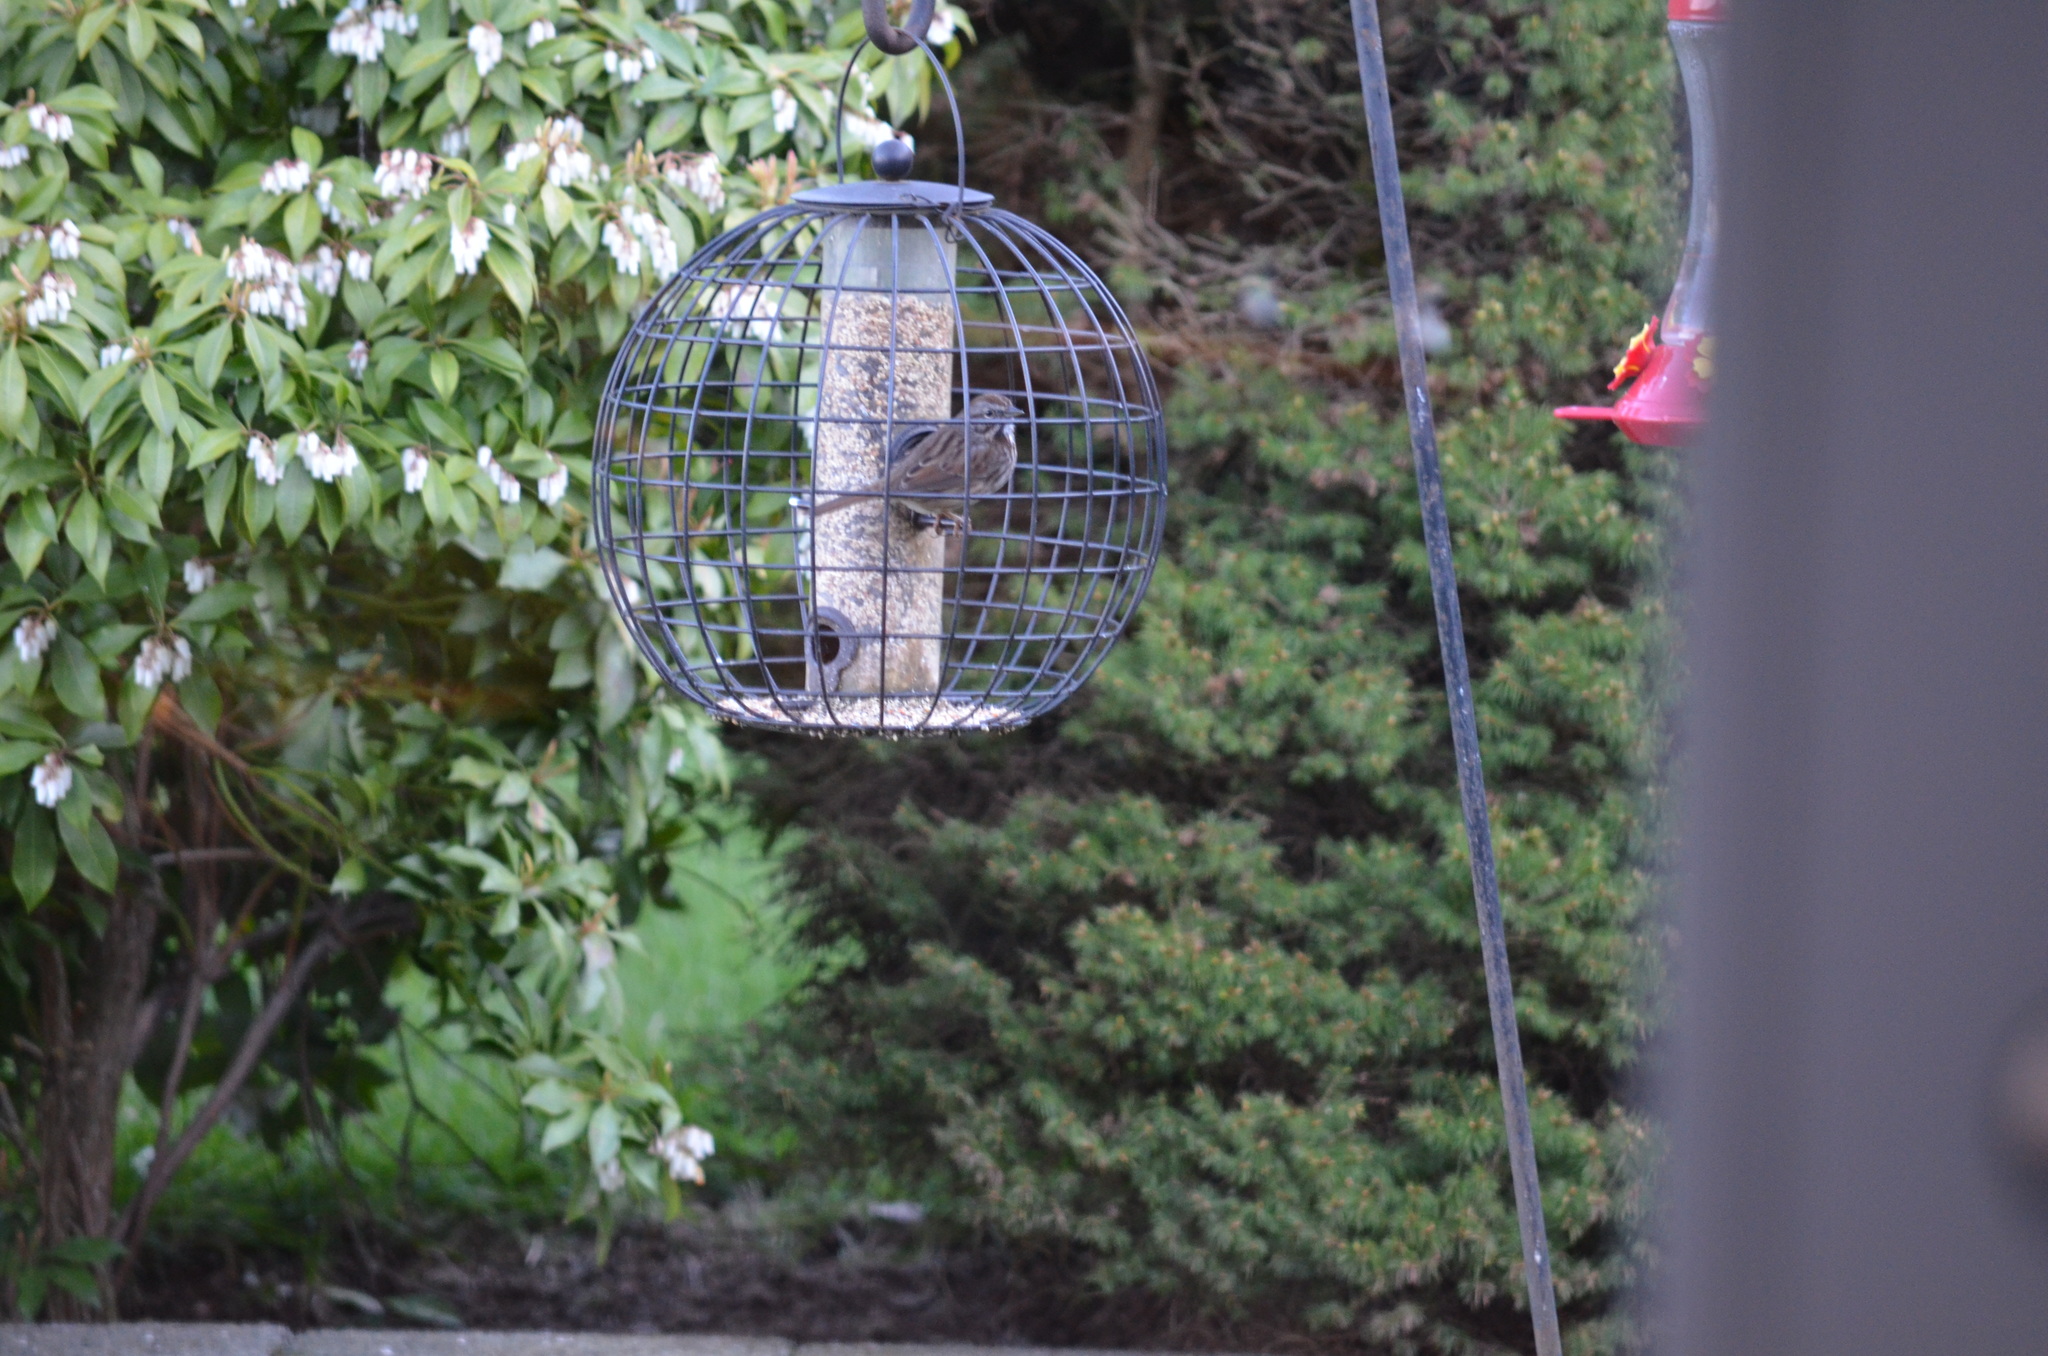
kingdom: Animalia
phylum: Chordata
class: Aves
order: Passeriformes
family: Passerellidae
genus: Melospiza
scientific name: Melospiza melodia
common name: Song sparrow
